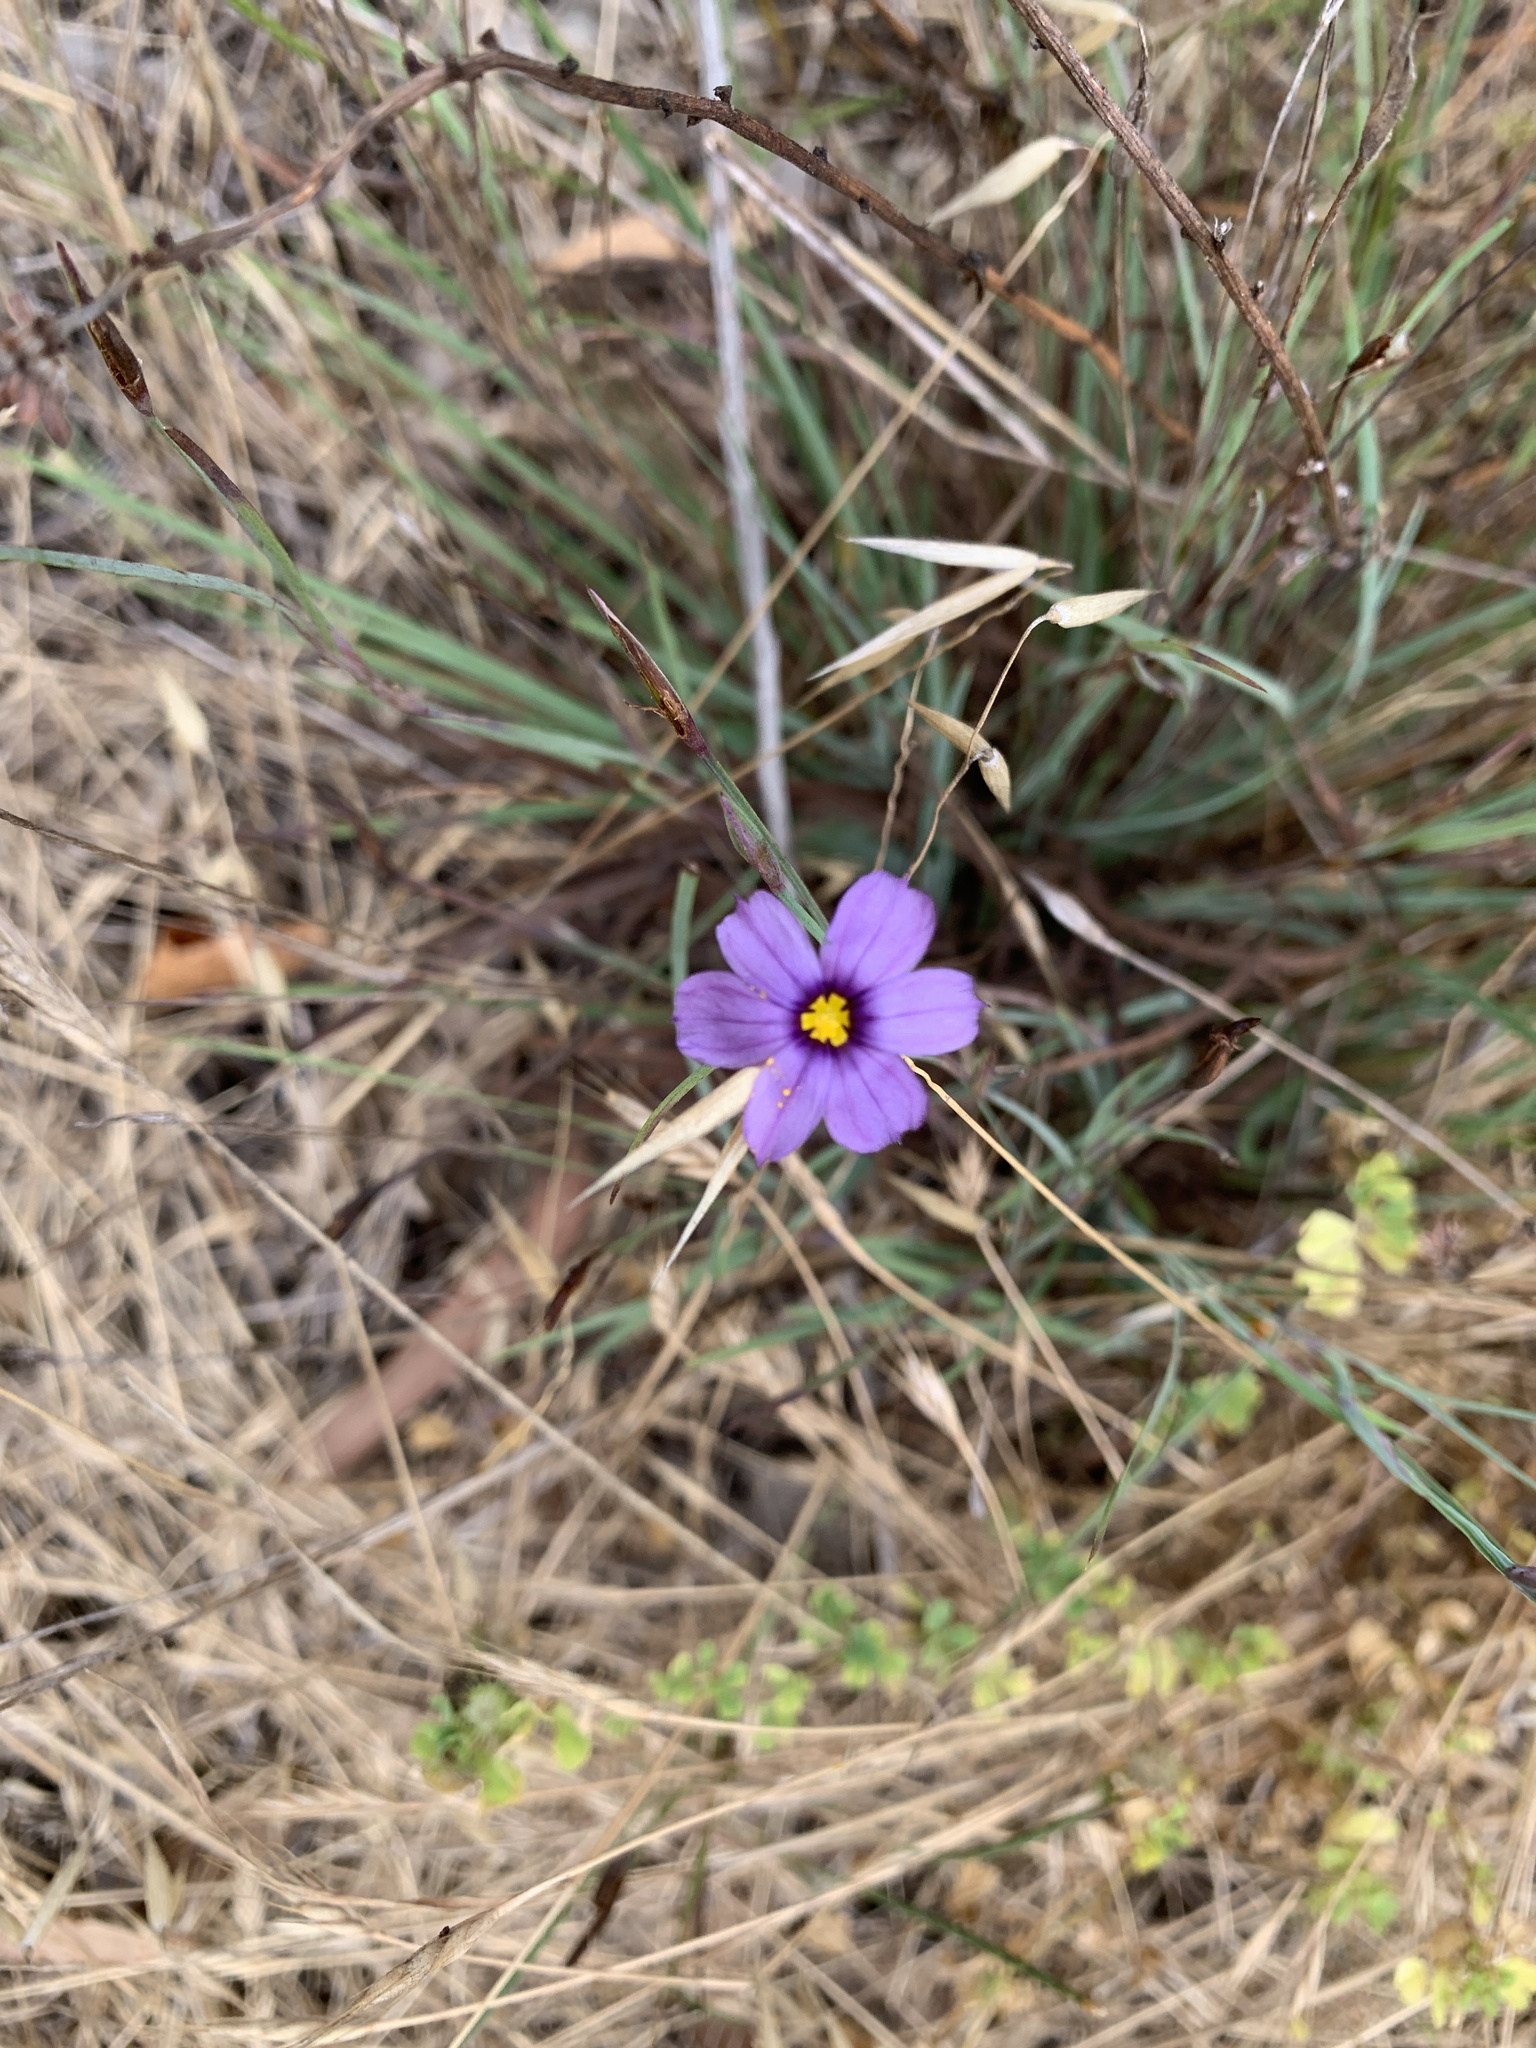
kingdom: Plantae
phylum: Tracheophyta
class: Liliopsida
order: Asparagales
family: Iridaceae
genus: Sisyrinchium
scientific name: Sisyrinchium bellum
